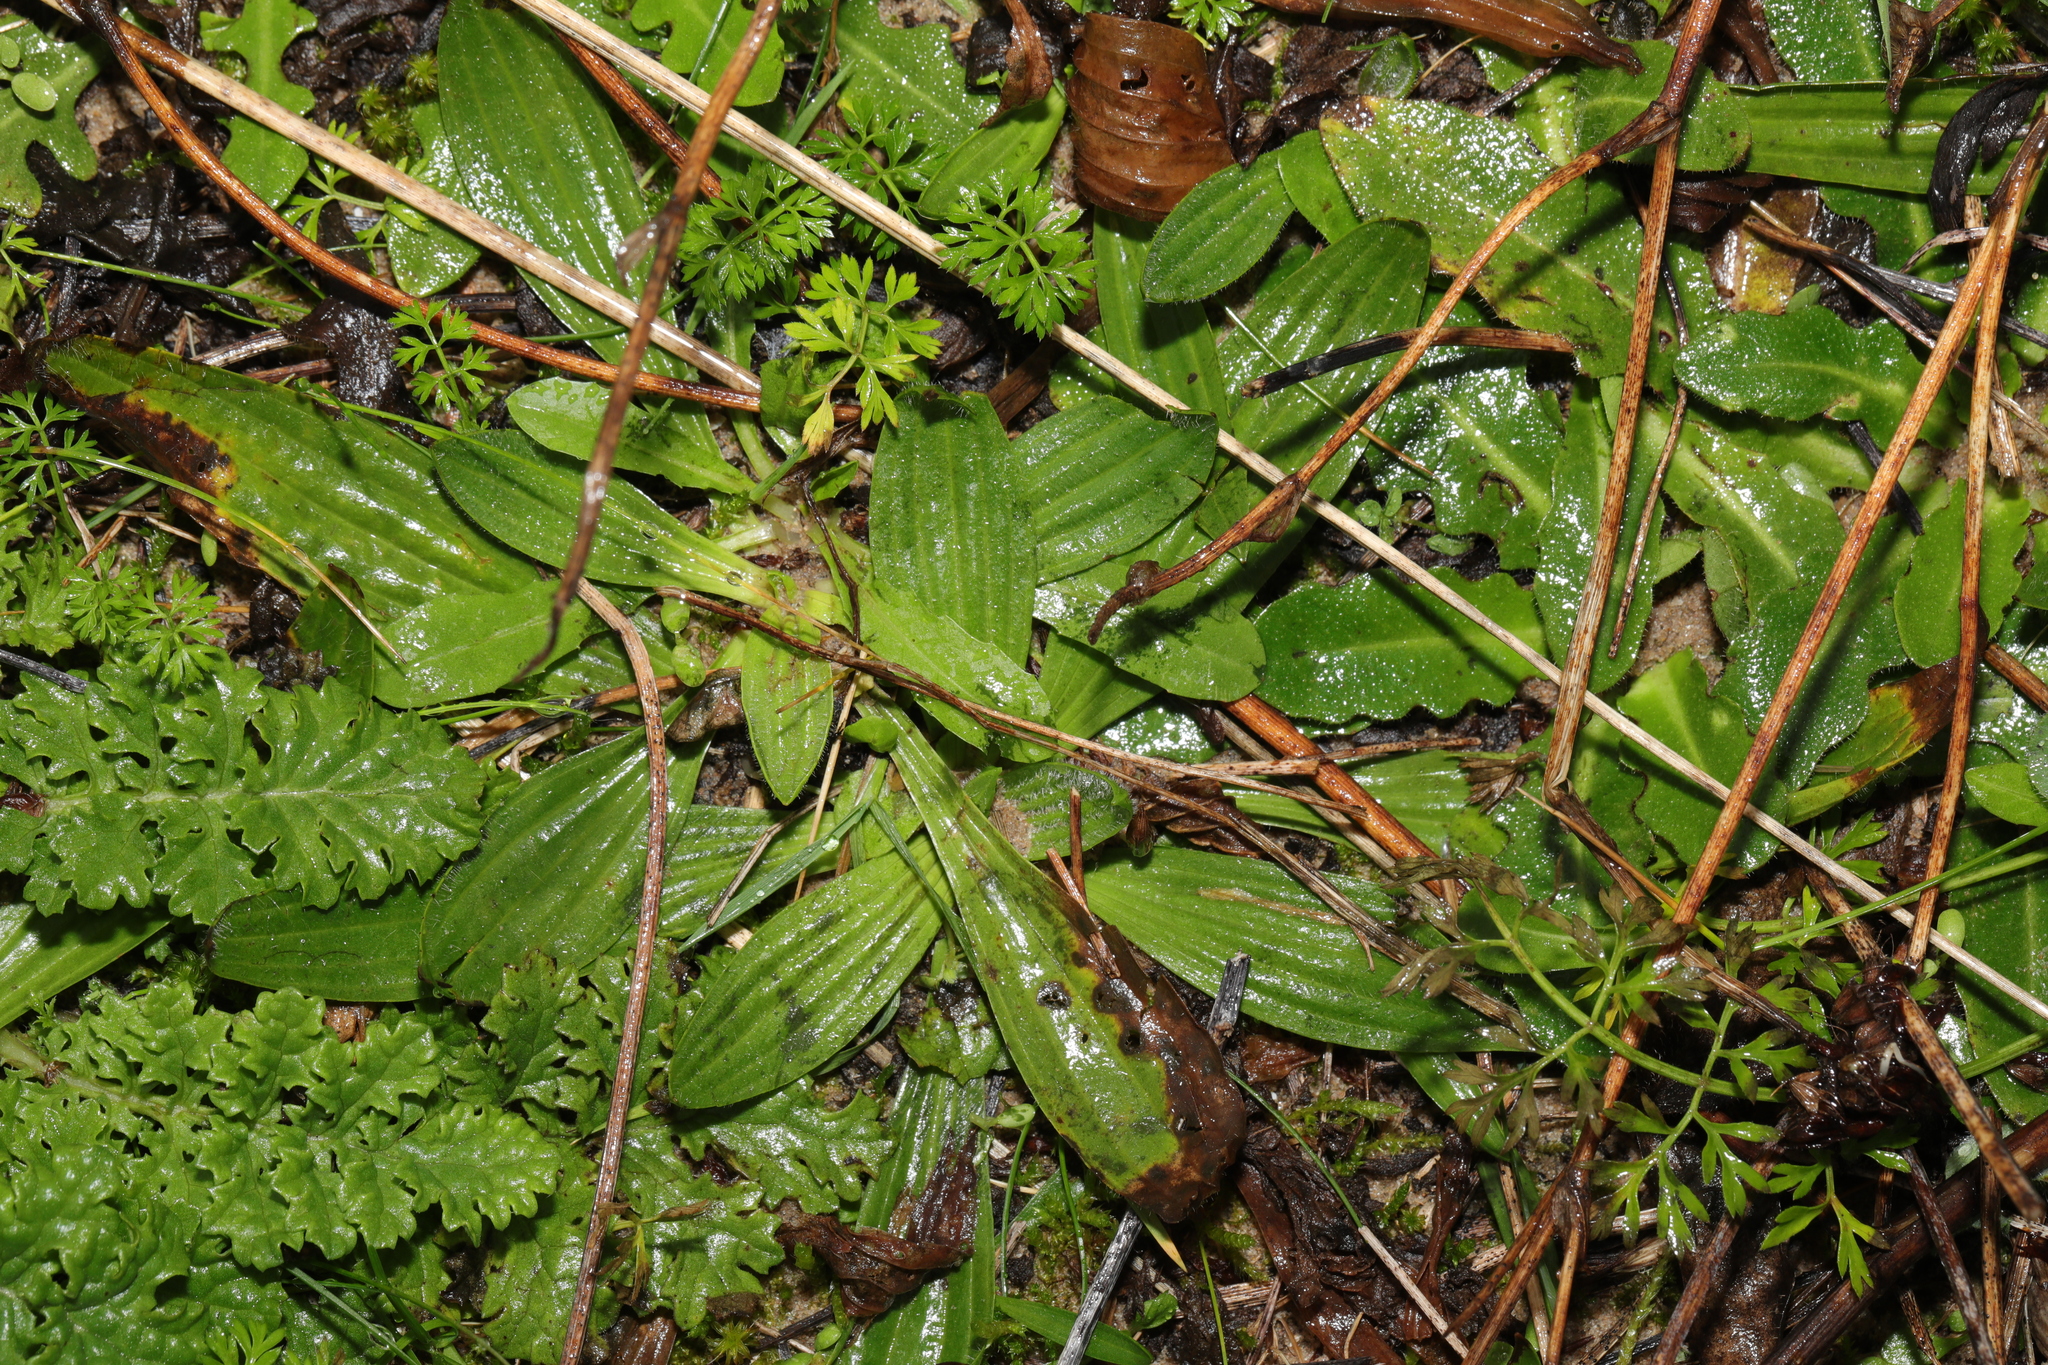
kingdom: Plantae
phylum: Tracheophyta
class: Magnoliopsida
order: Lamiales
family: Plantaginaceae
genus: Plantago
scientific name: Plantago lanceolata
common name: Ribwort plantain
